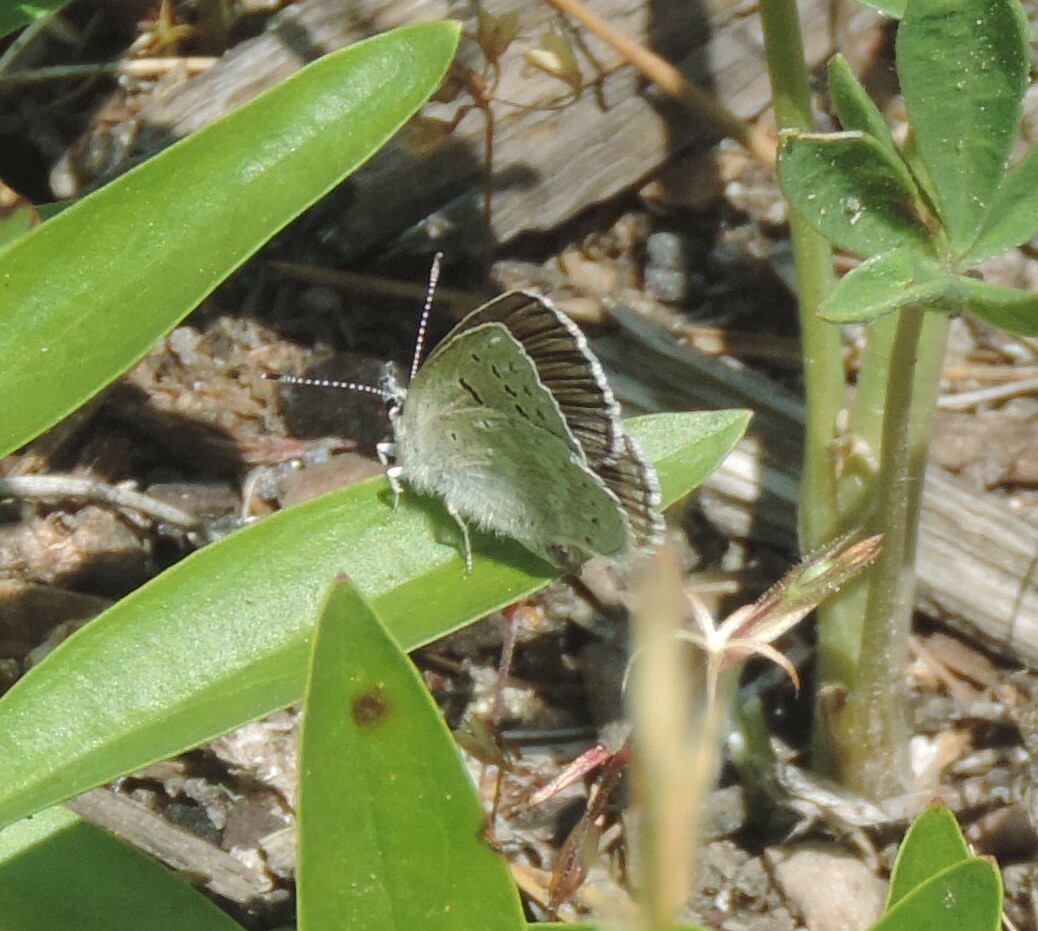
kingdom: Animalia
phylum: Arthropoda
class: Insecta
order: Lepidoptera
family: Lycaenidae
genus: Icaricia
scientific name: Icaricia icarioides
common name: Boisduval's blue
